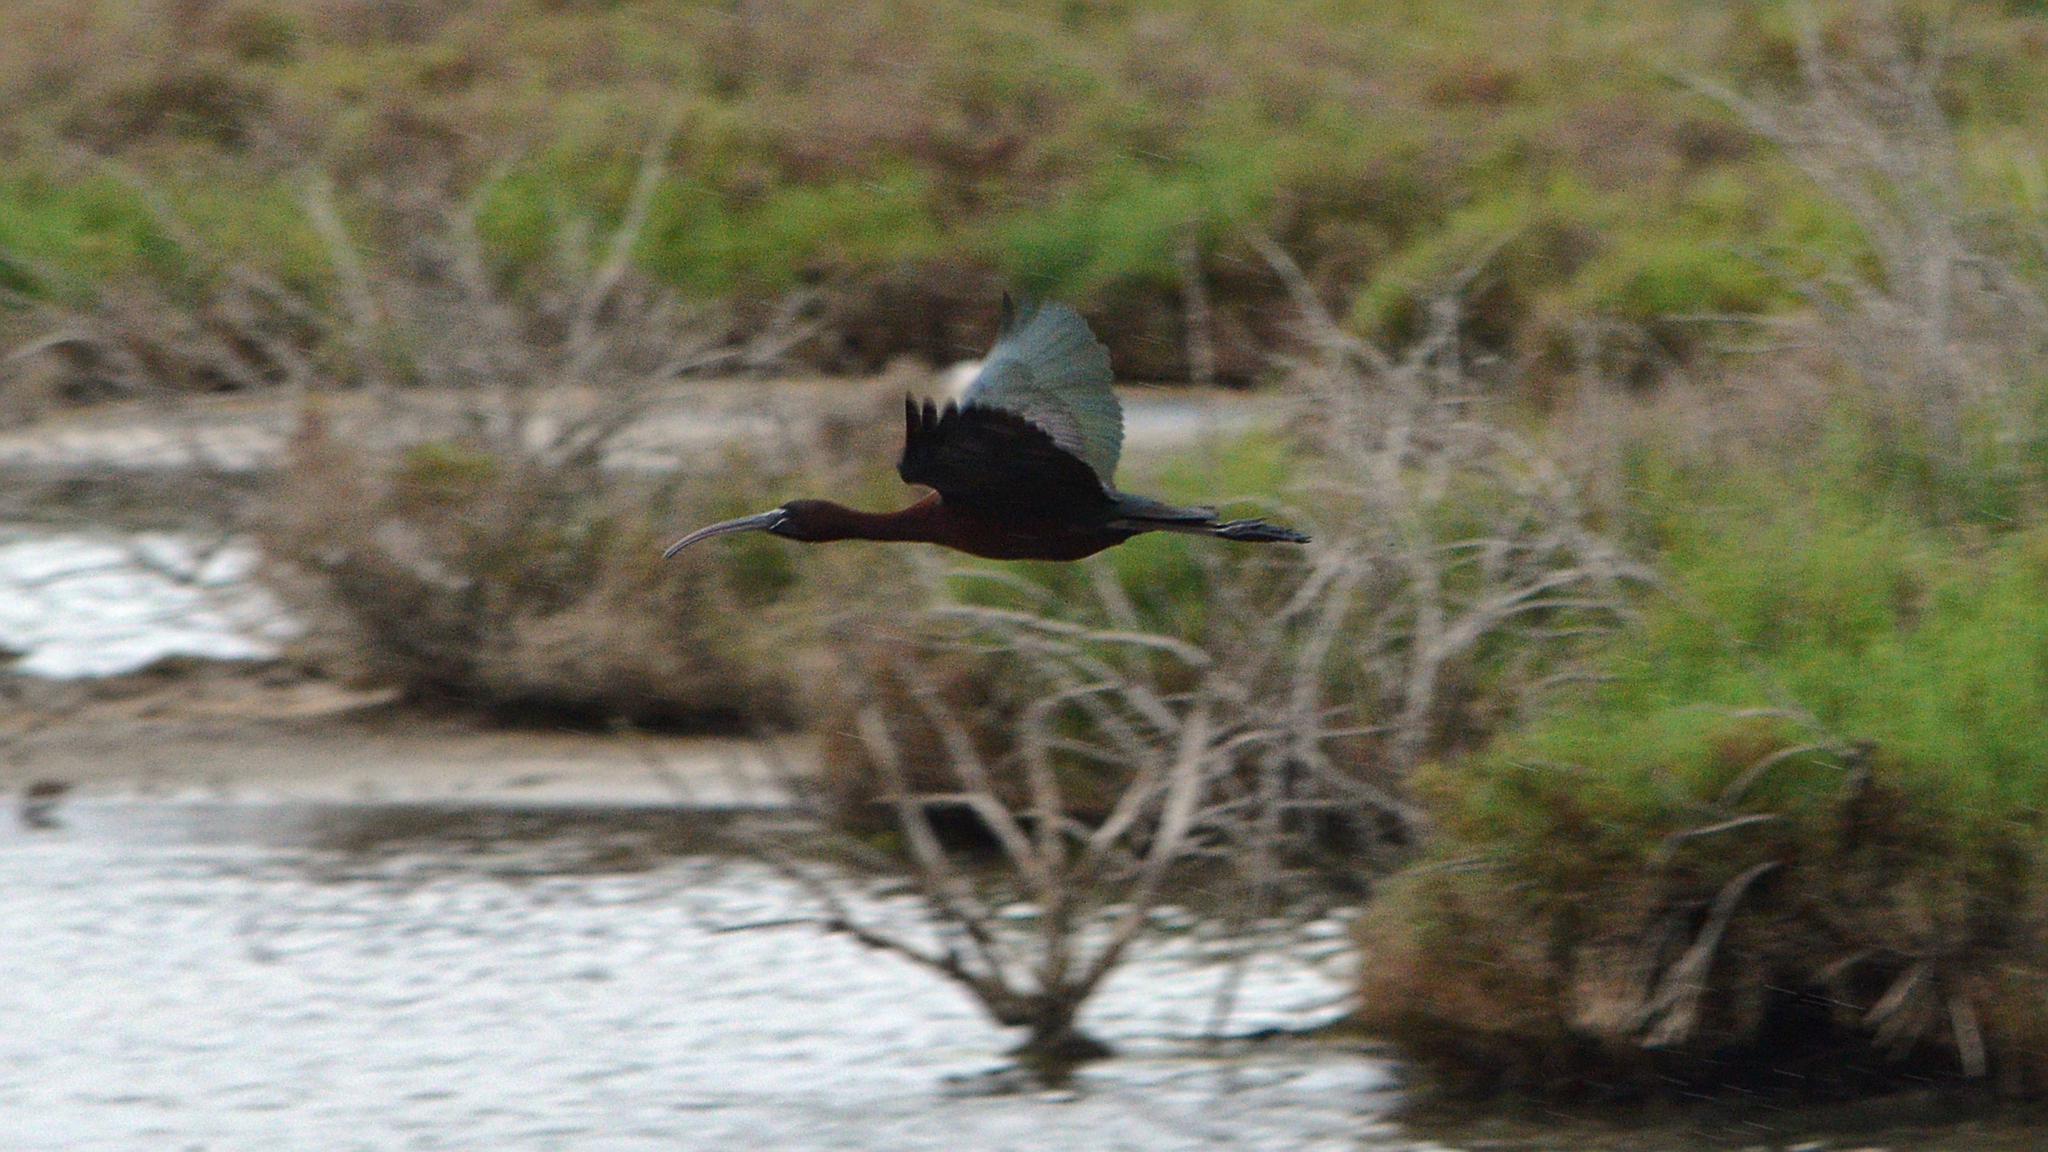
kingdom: Animalia
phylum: Chordata
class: Aves
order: Pelecaniformes
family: Threskiornithidae
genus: Plegadis
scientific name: Plegadis falcinellus
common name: Glossy ibis
